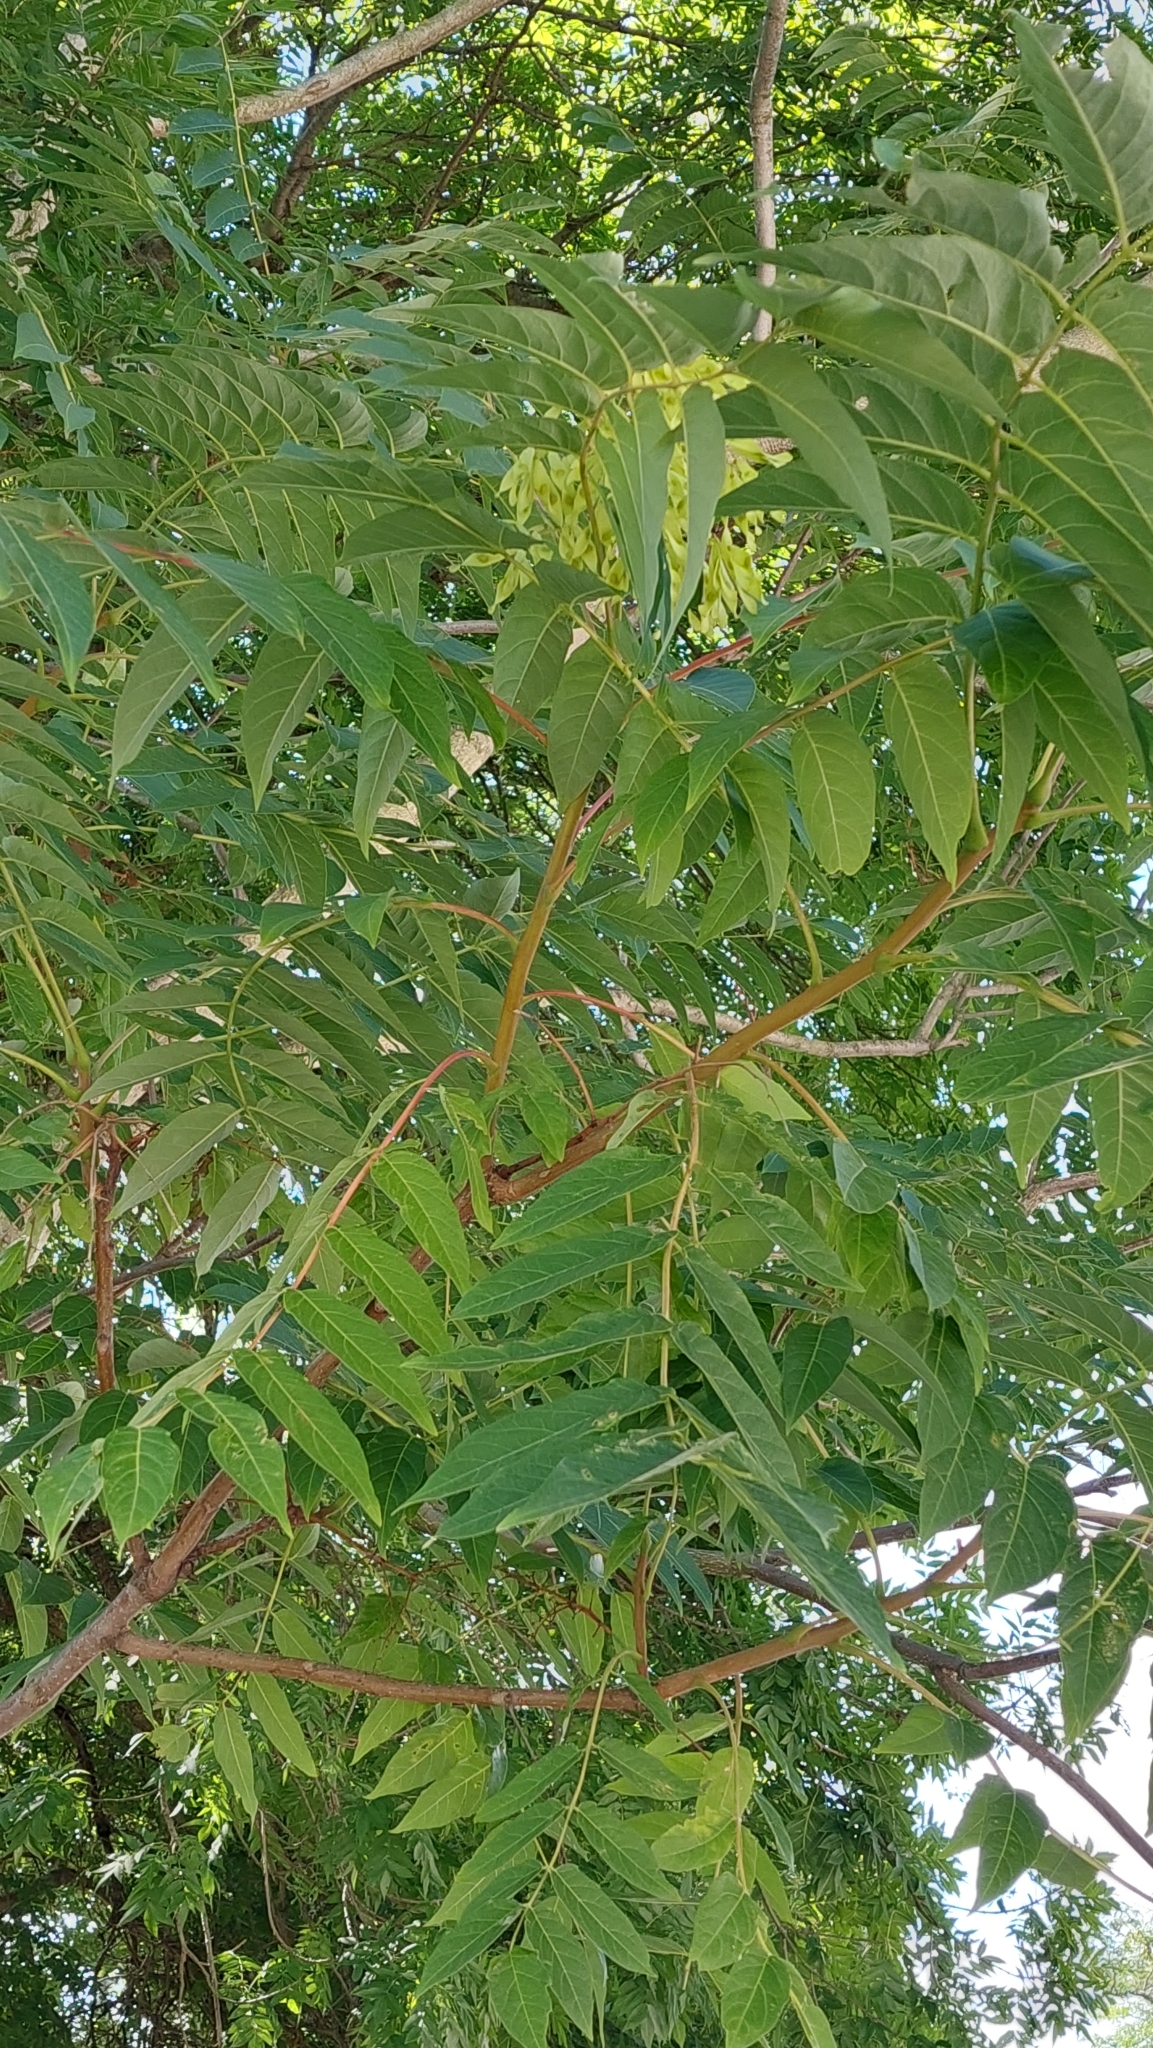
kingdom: Plantae
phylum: Tracheophyta
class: Magnoliopsida
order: Sapindales
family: Simaroubaceae
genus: Ailanthus
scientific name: Ailanthus altissima
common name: Tree-of-heaven
